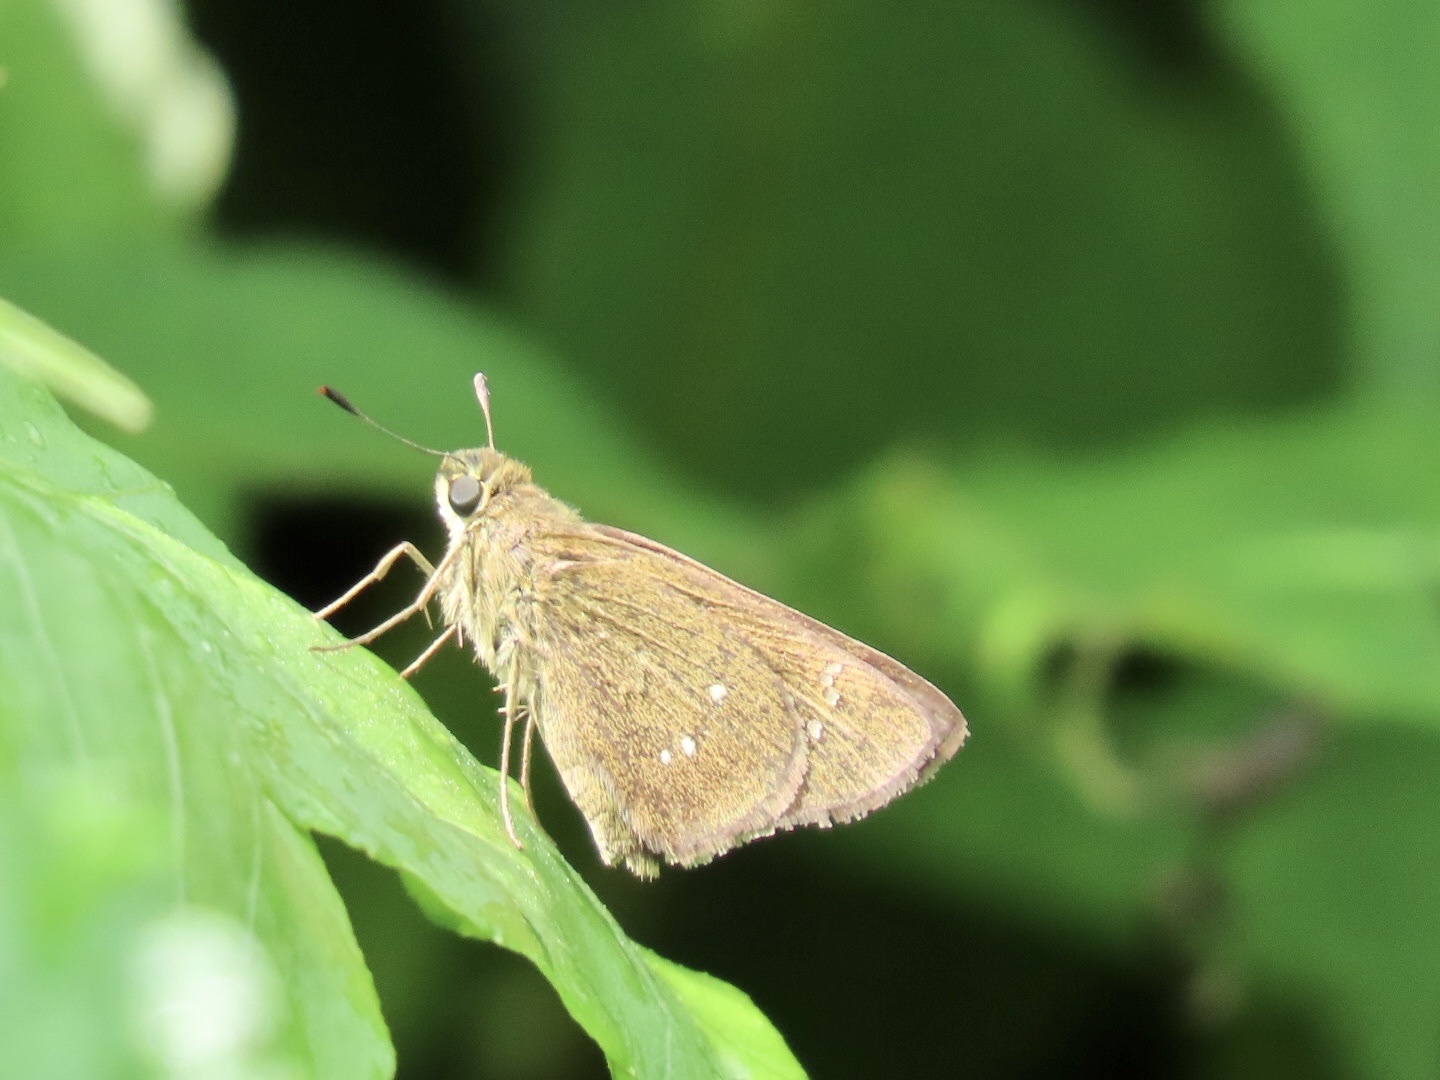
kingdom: Animalia
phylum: Arthropoda
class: Insecta
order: Lepidoptera
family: Hesperiidae
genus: Borbo
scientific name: Borbo cinnara
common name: Formosan swift
